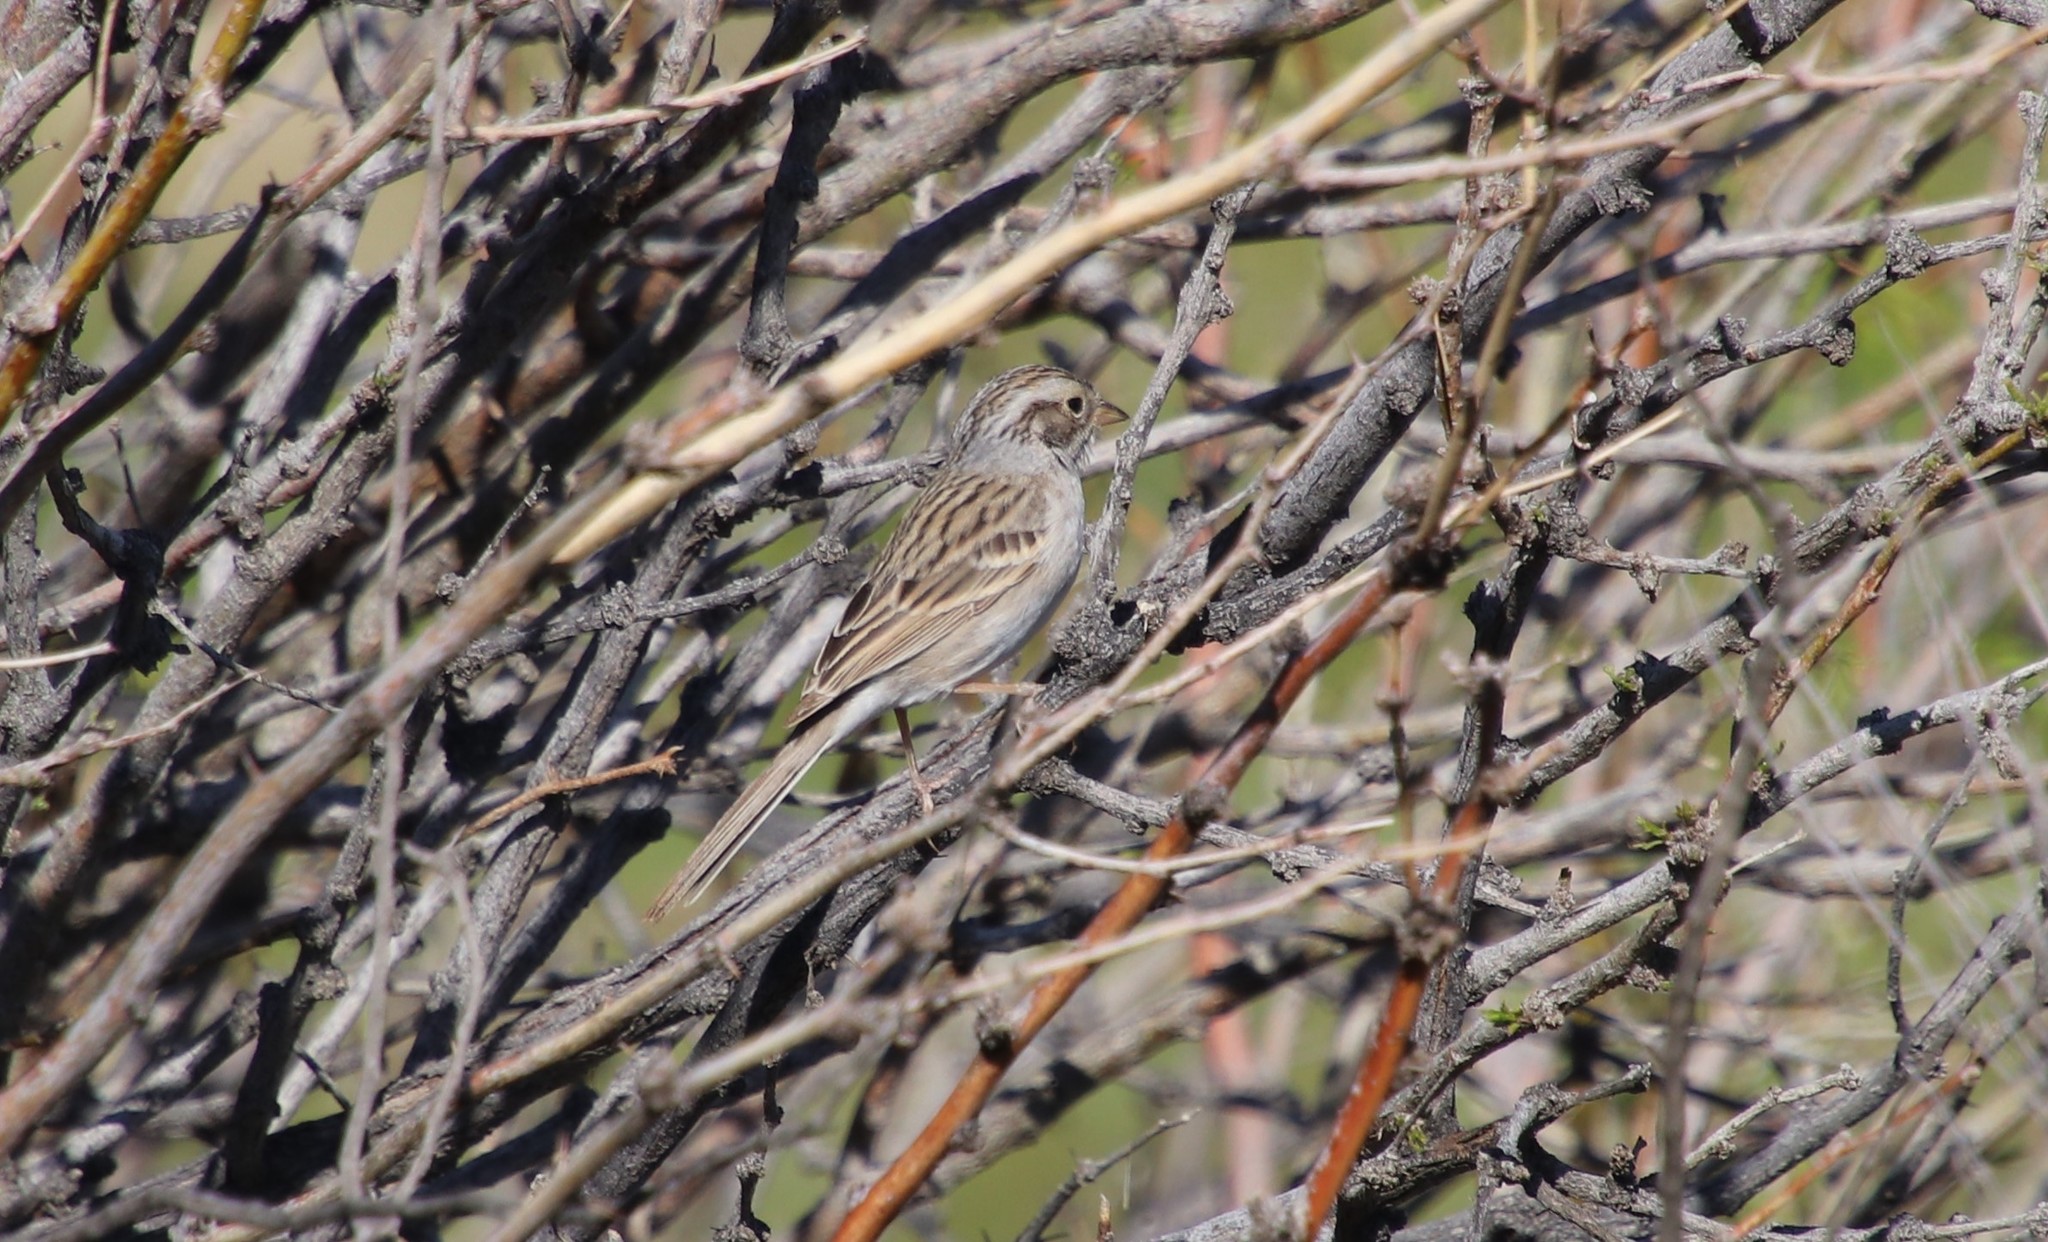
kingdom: Animalia
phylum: Chordata
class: Aves
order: Passeriformes
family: Passerellidae
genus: Spizella
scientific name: Spizella breweri
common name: Brewer's sparrow
